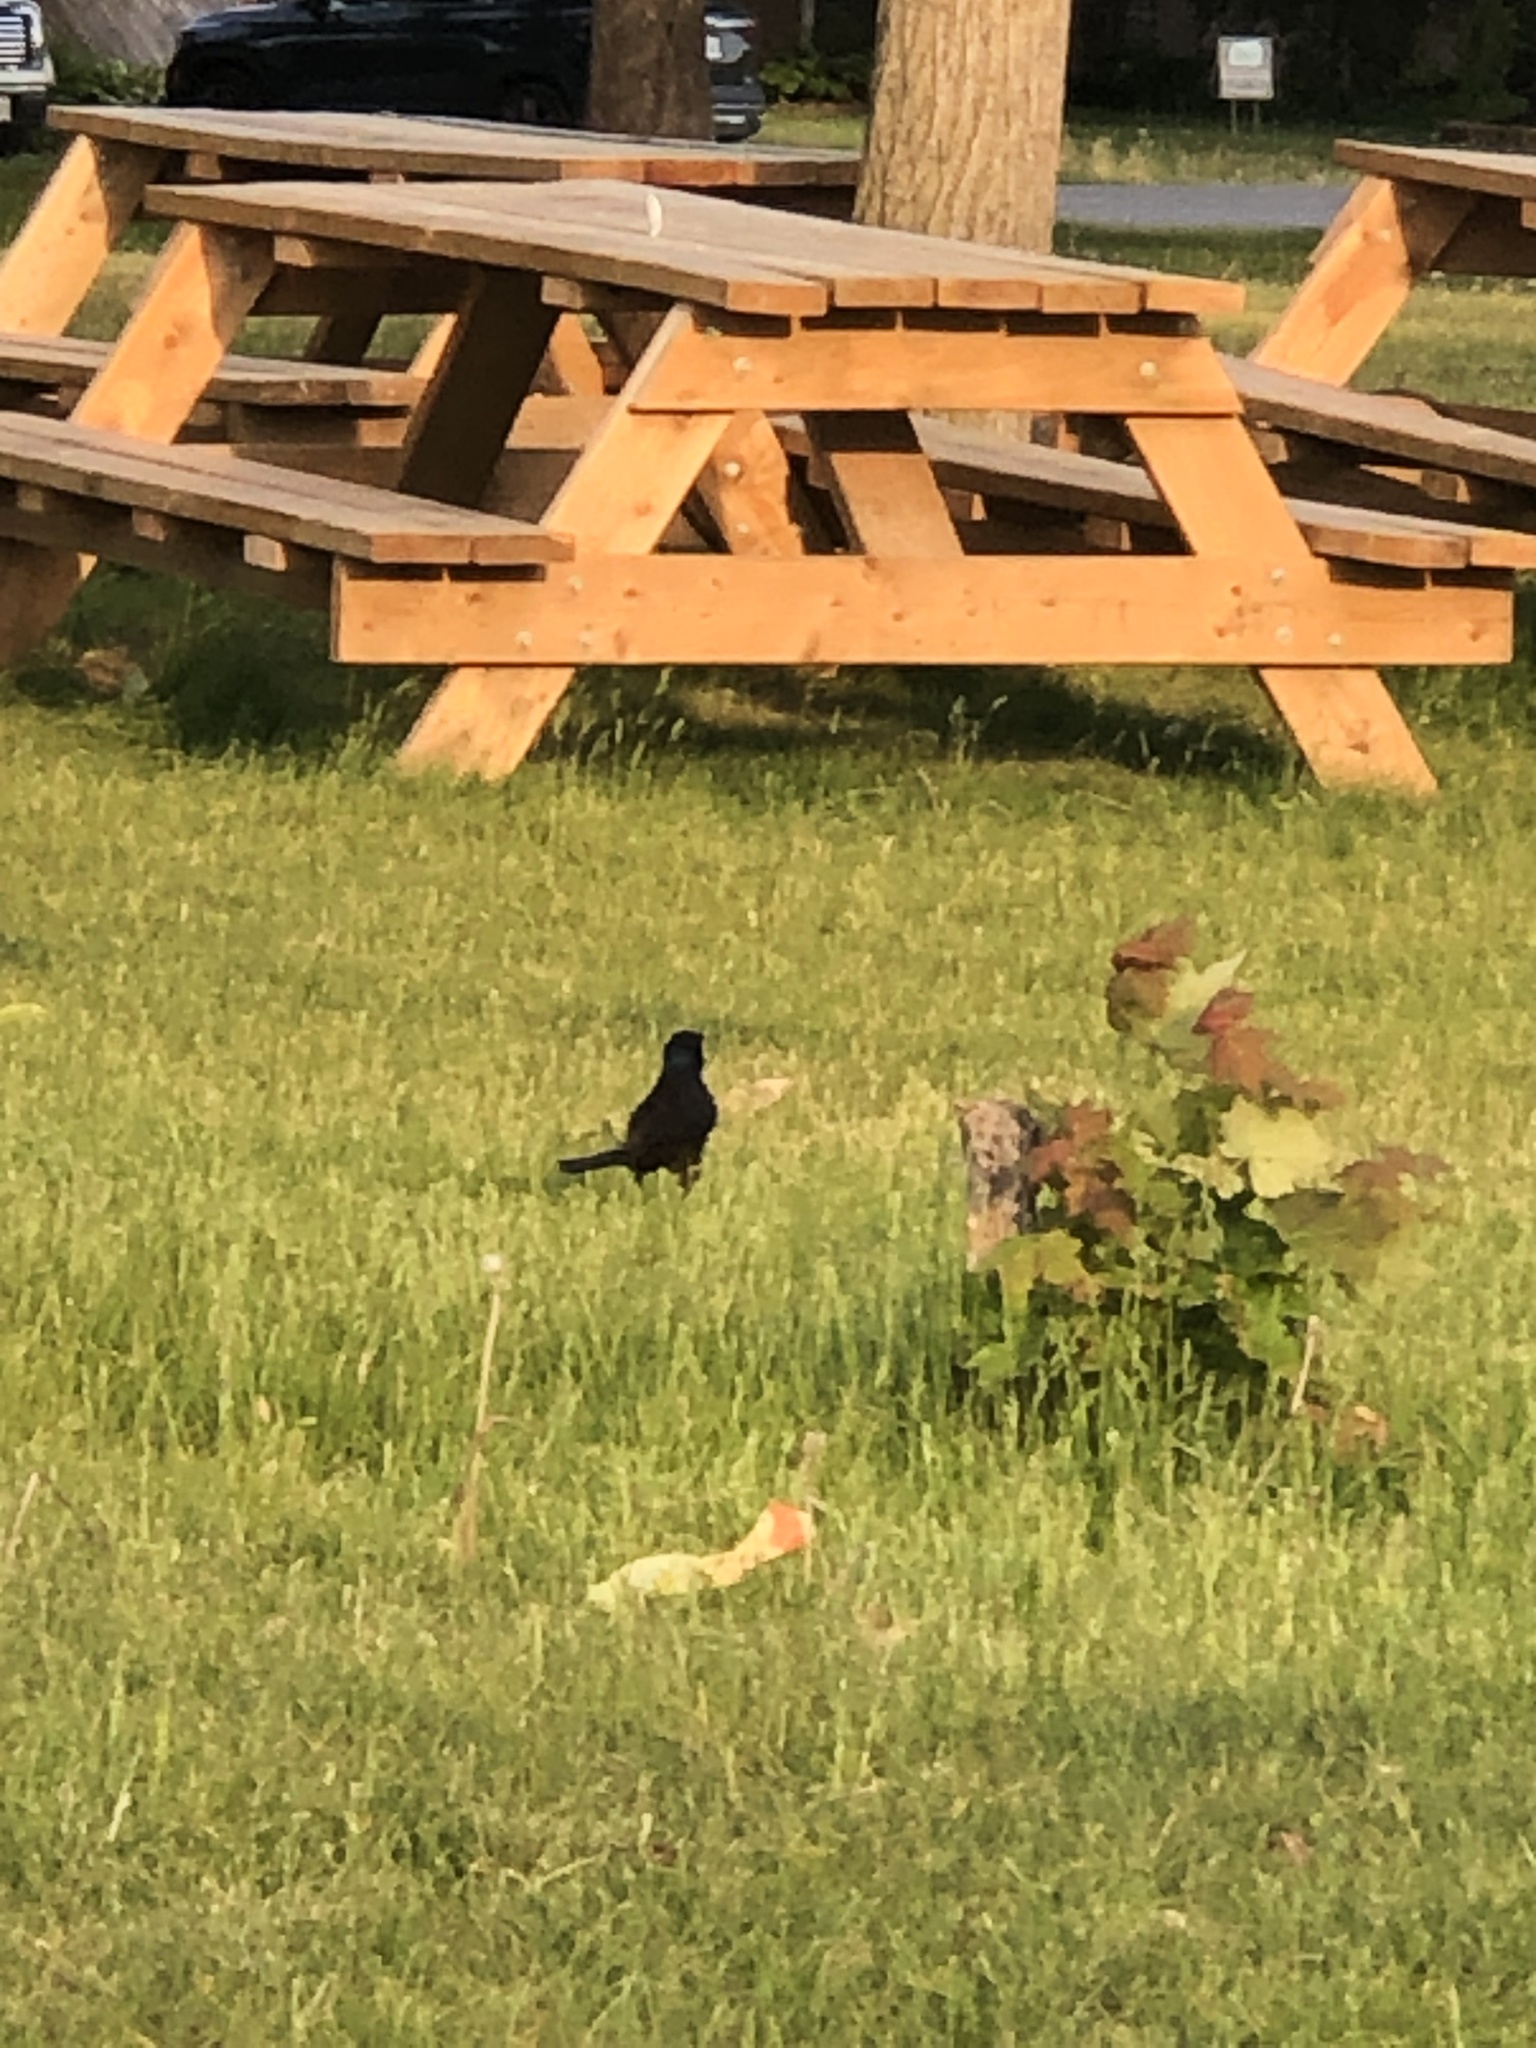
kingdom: Animalia
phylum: Chordata
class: Aves
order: Passeriformes
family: Icteridae
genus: Quiscalus
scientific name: Quiscalus quiscula
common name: Common grackle
